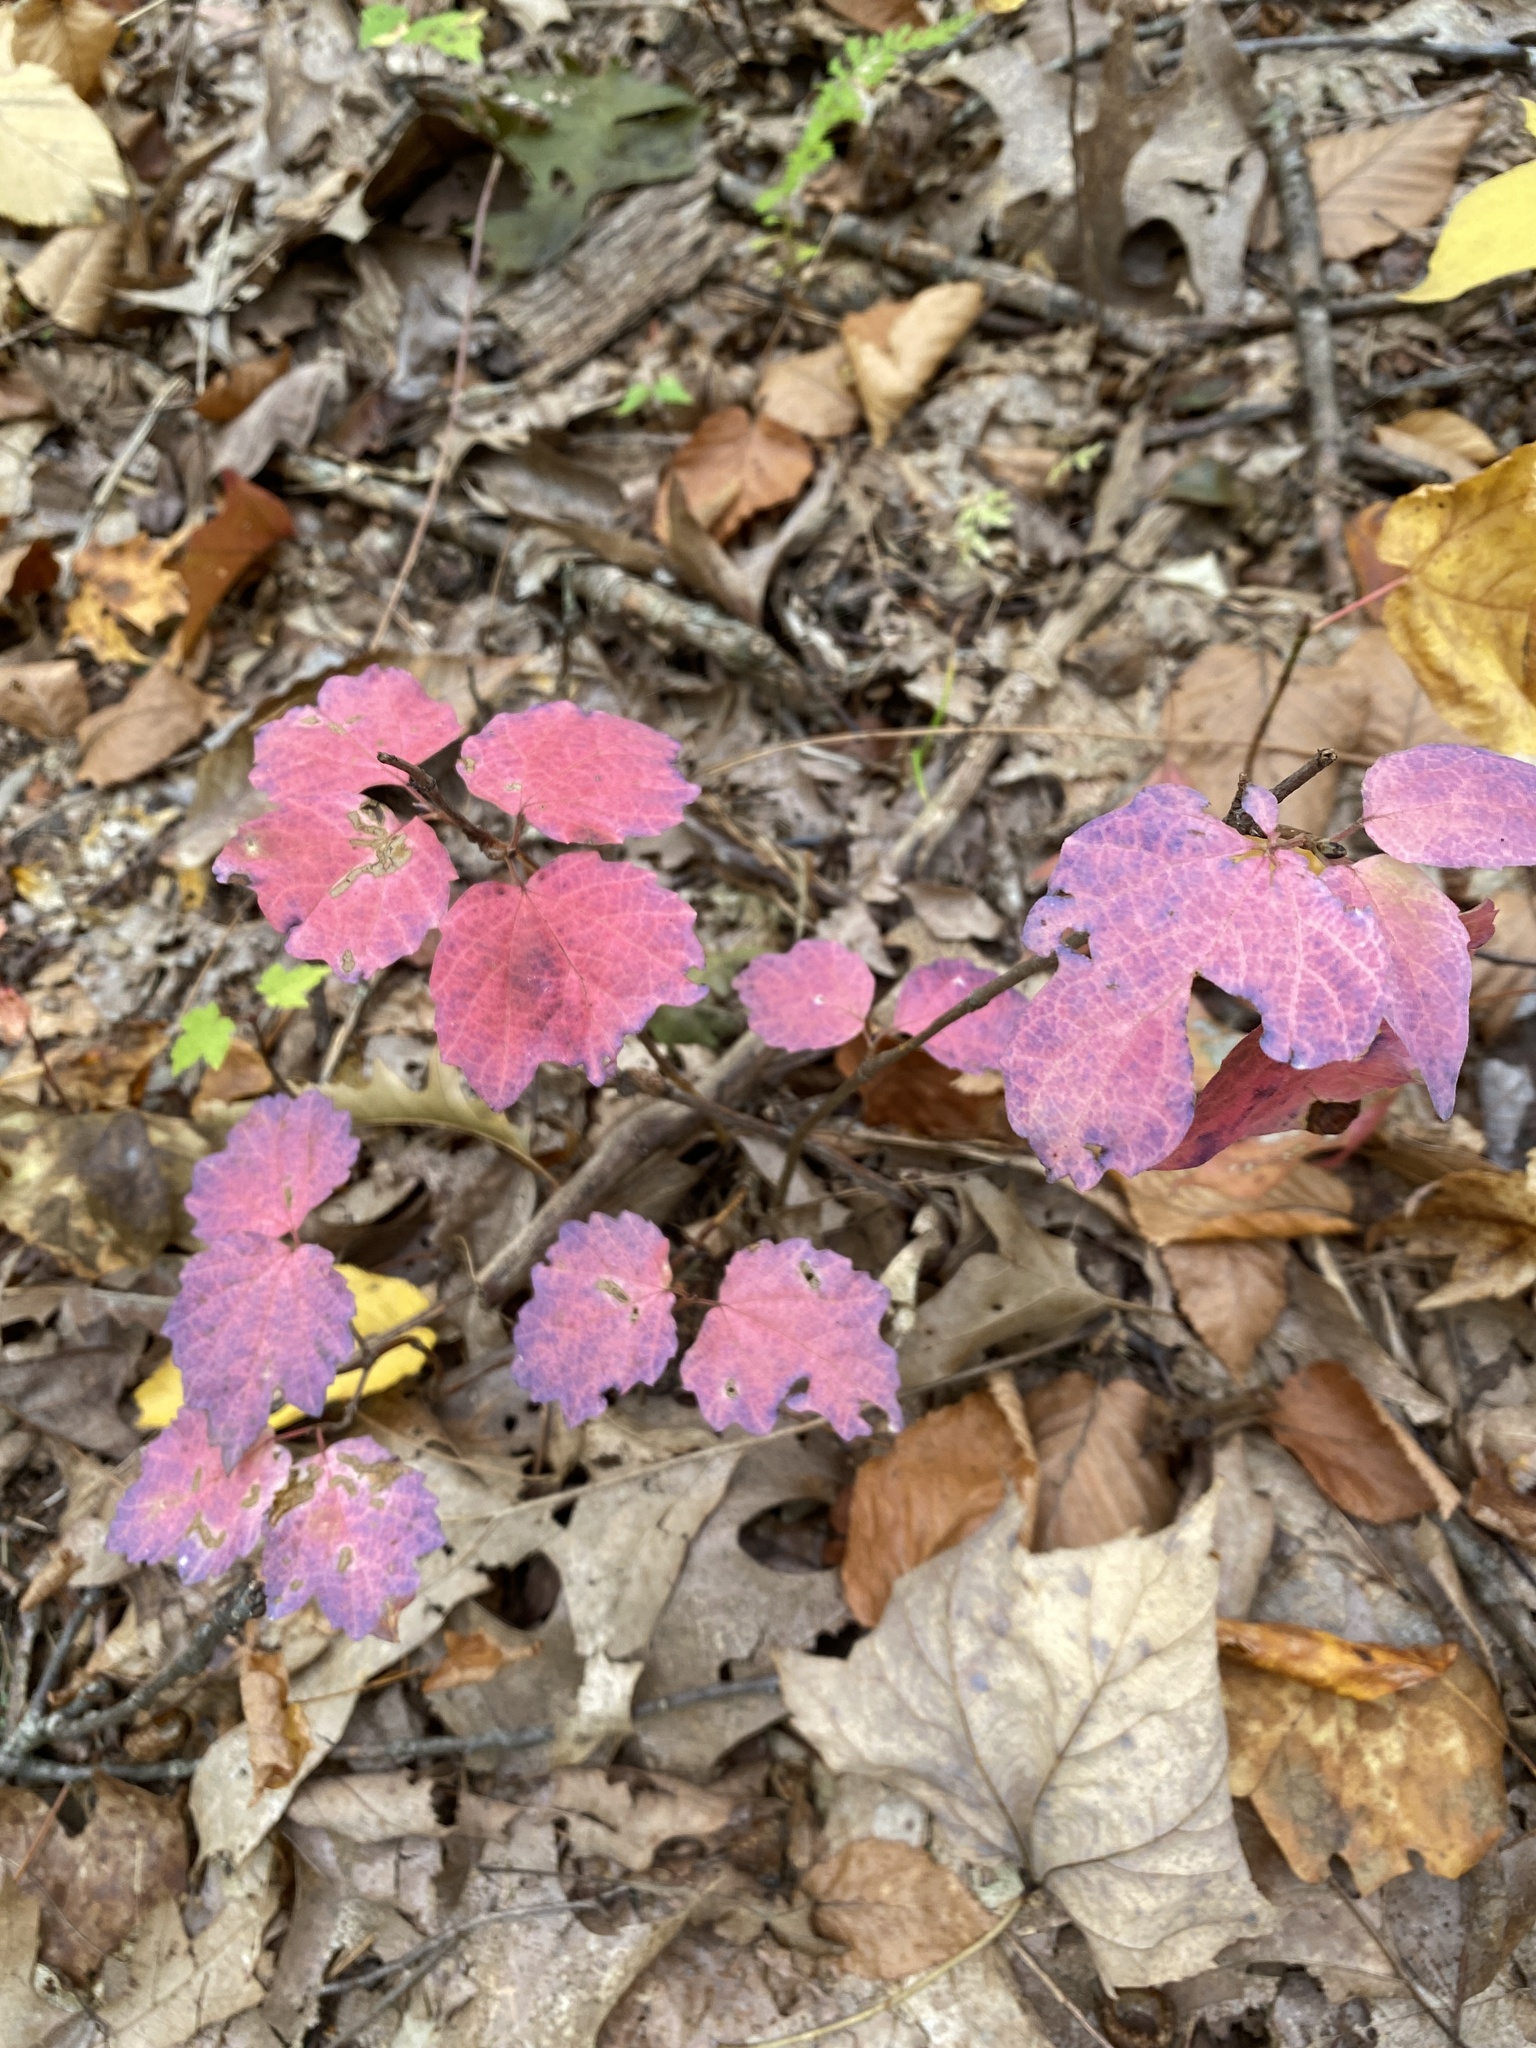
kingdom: Plantae
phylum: Tracheophyta
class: Magnoliopsida
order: Dipsacales
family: Viburnaceae
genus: Viburnum
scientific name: Viburnum acerifolium
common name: Dockmackie
